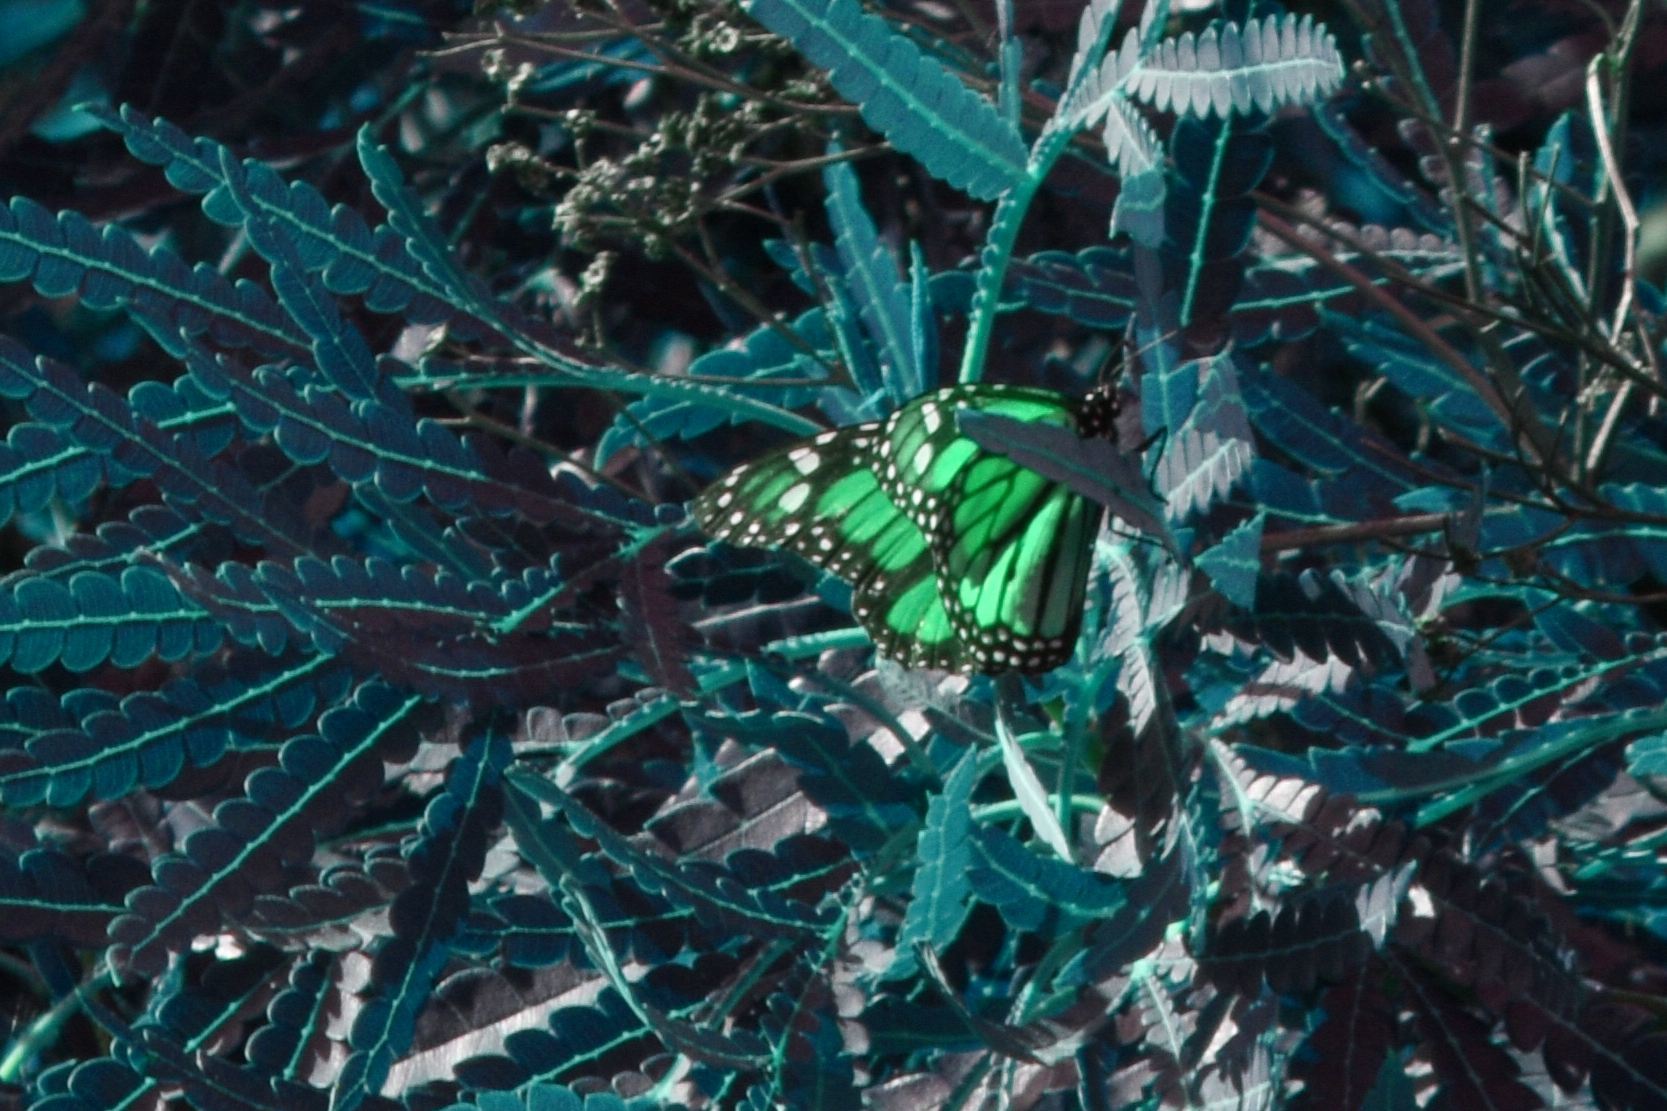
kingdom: Animalia
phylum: Arthropoda
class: Insecta
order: Lepidoptera
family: Nymphalidae
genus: Danaus
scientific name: Danaus plexippus
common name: Monarch
